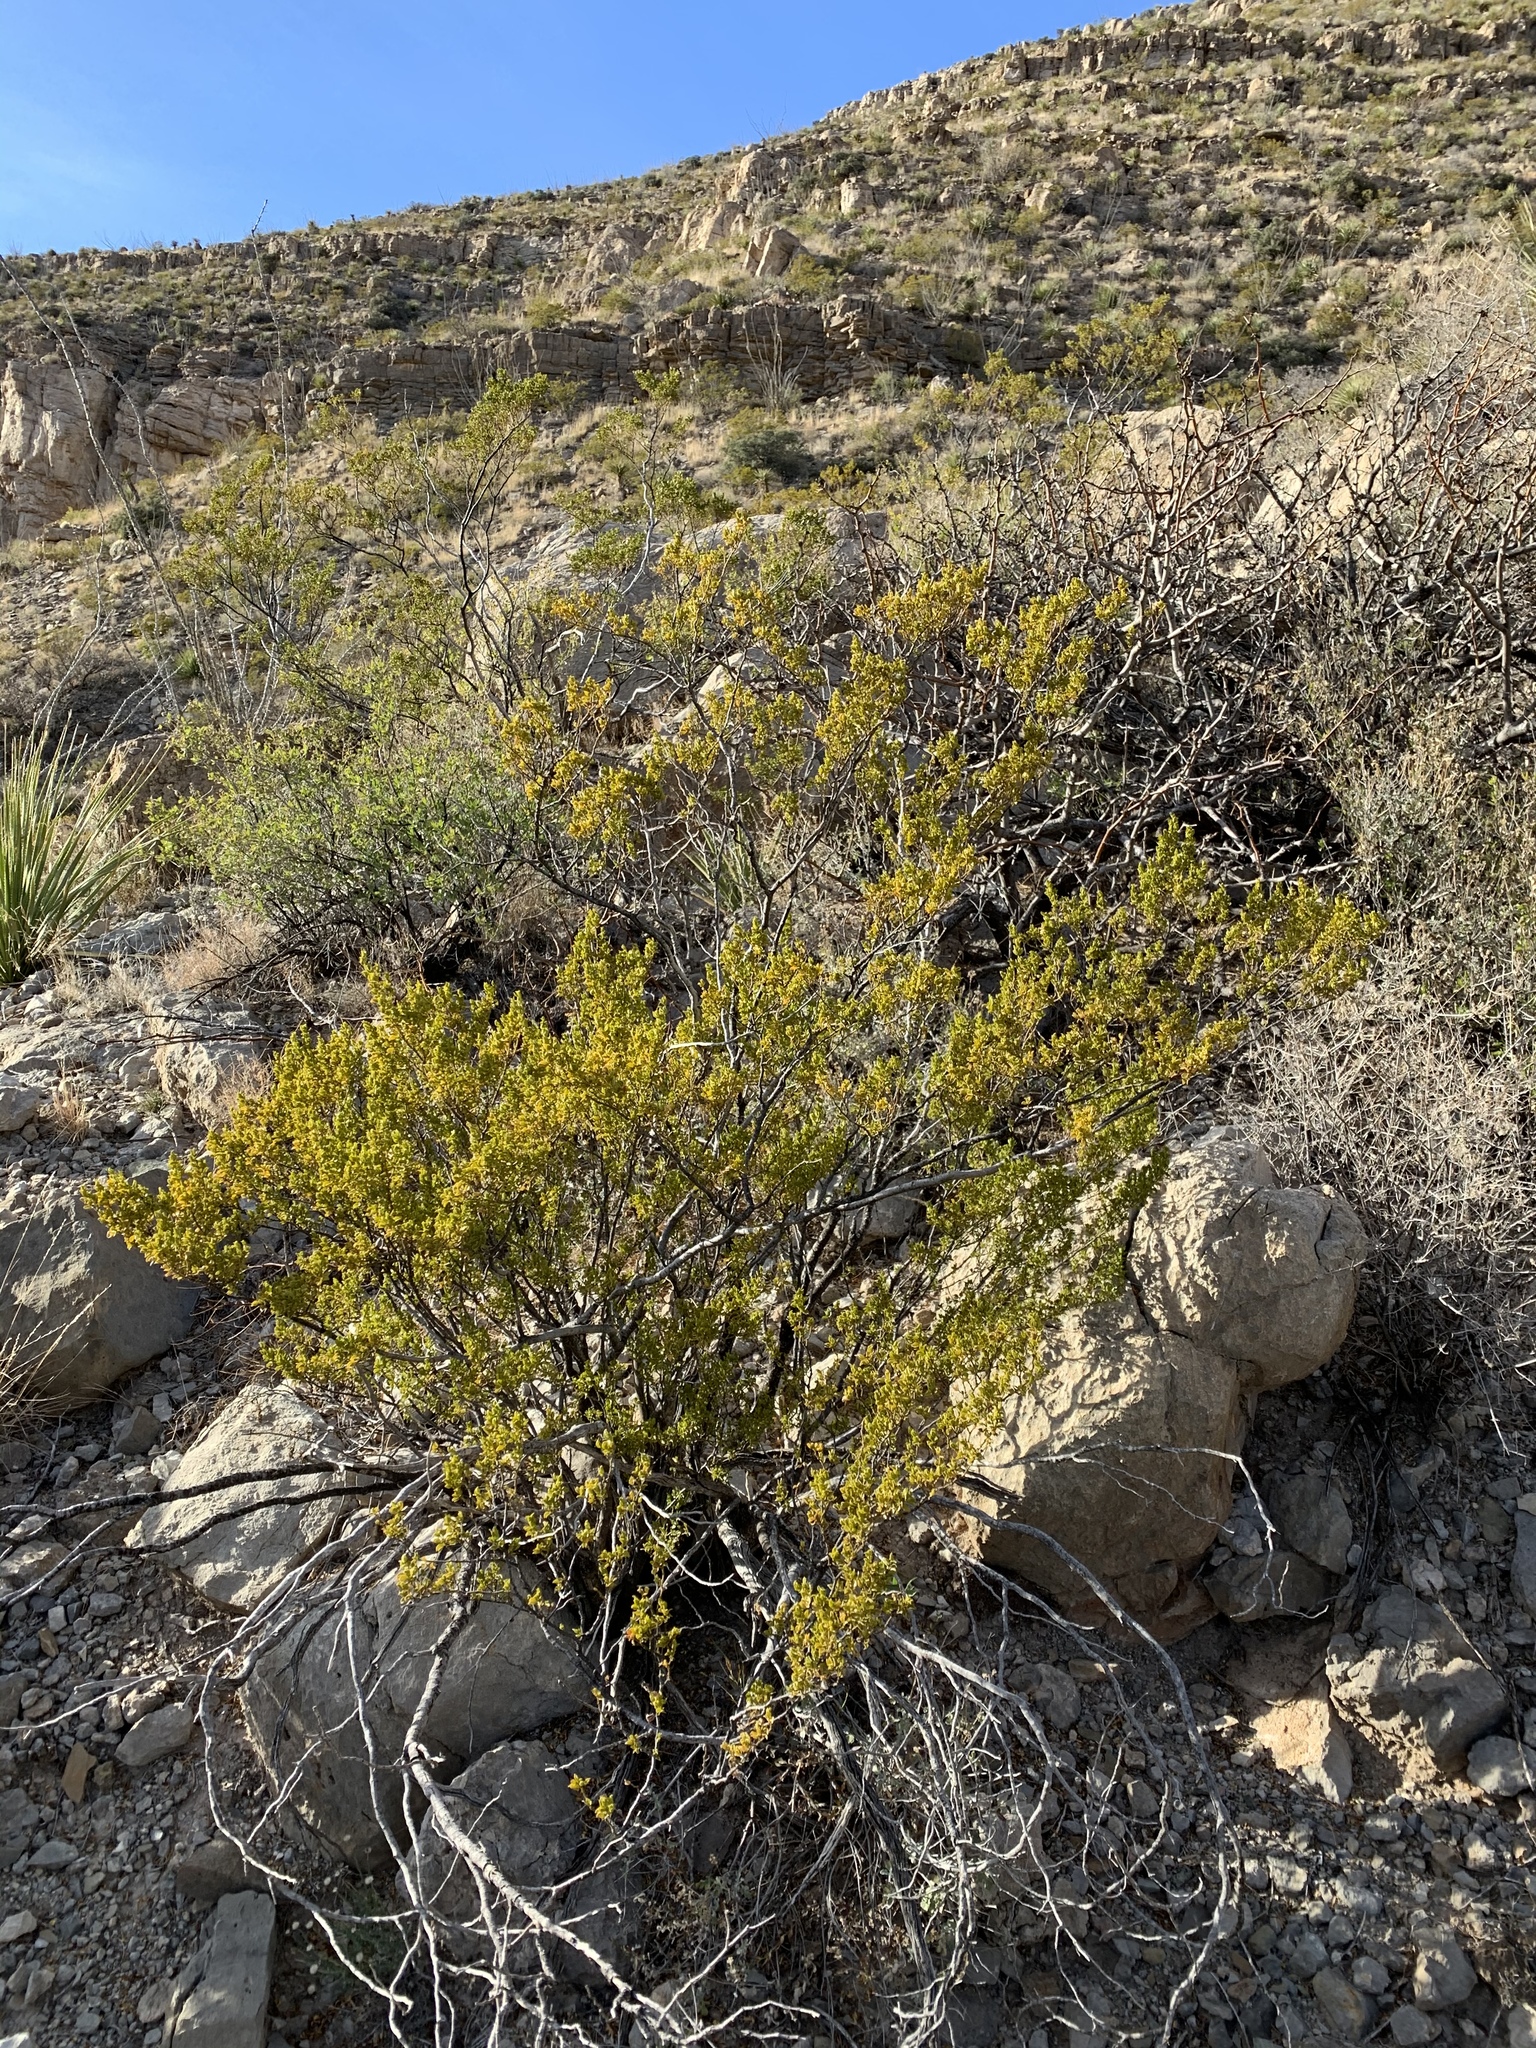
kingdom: Plantae
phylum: Tracheophyta
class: Magnoliopsida
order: Zygophyllales
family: Zygophyllaceae
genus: Larrea
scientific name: Larrea tridentata
